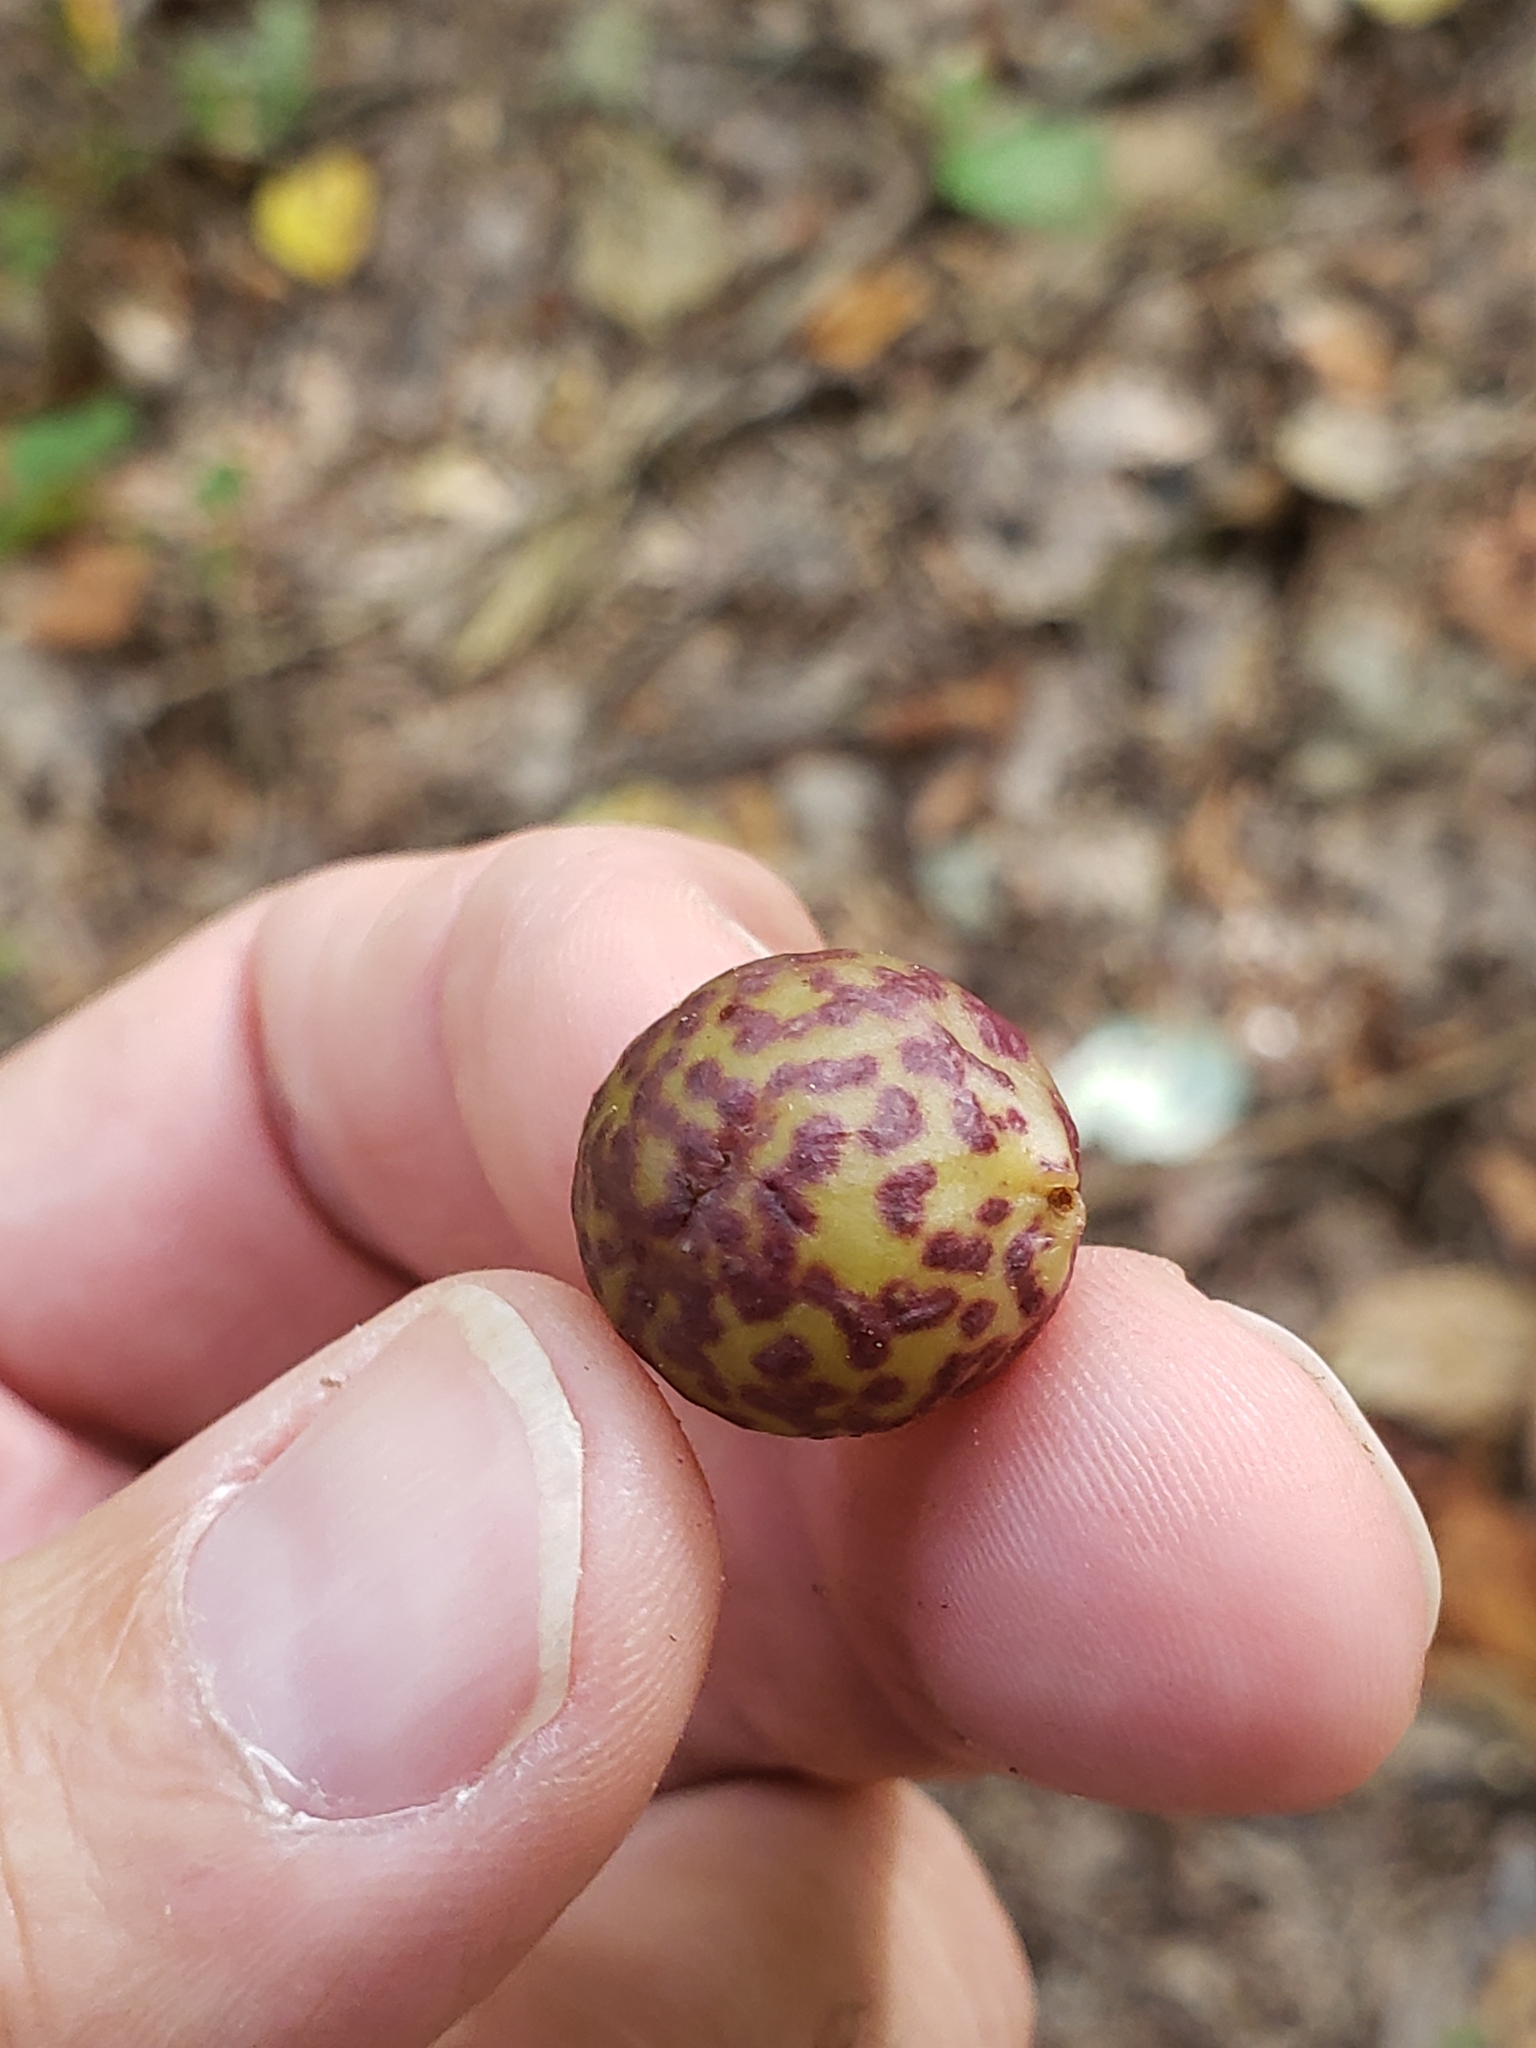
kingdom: Animalia
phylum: Arthropoda
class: Insecta
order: Hymenoptera
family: Cynipidae
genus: Amphibolips
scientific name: Amphibolips
